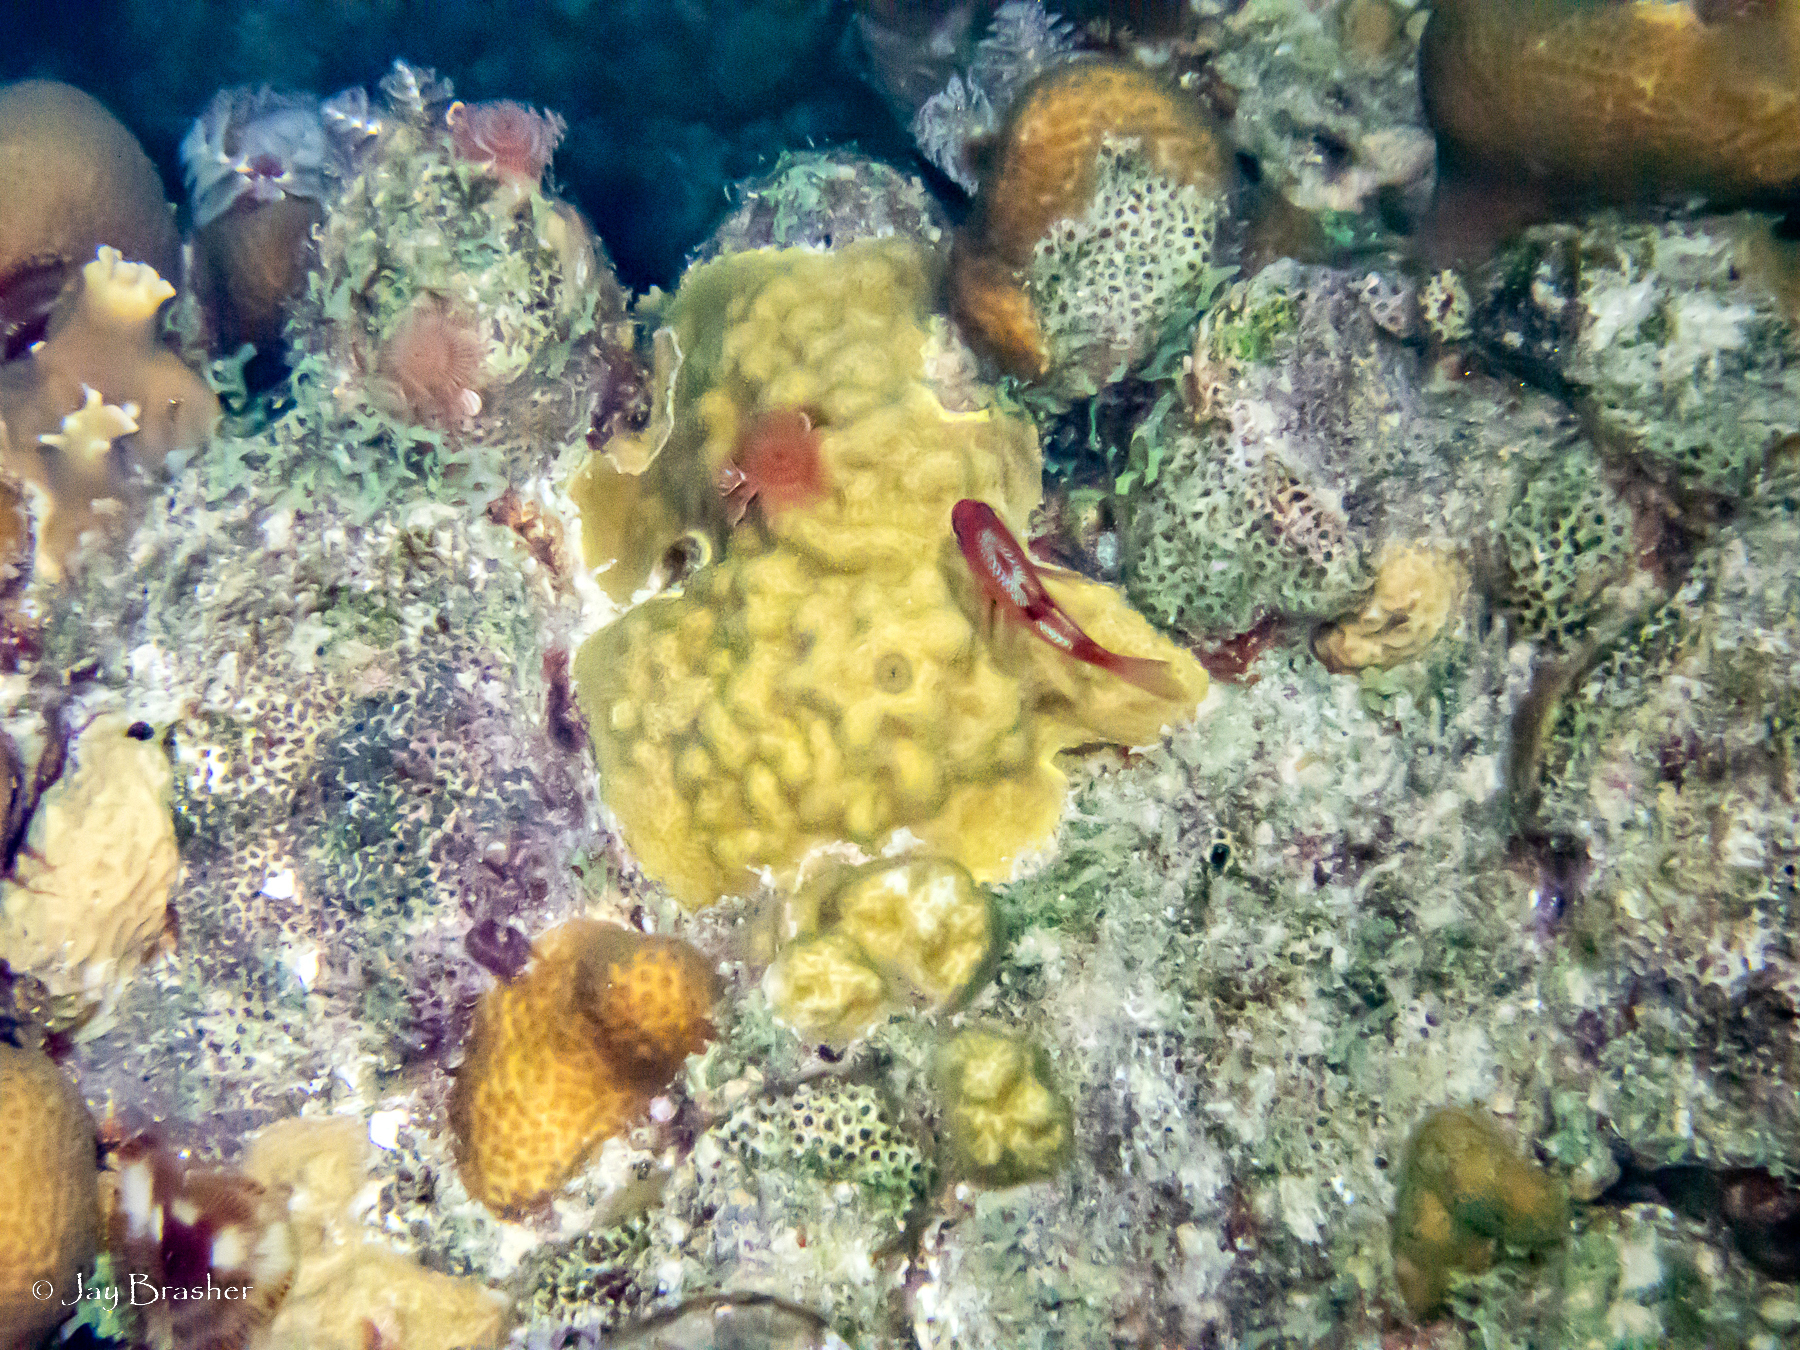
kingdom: Animalia
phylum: Annelida
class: Polychaeta
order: Sabellida
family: Serpulidae
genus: Spirobranchus
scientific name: Spirobranchus giganteus
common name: Christmas tree worm
